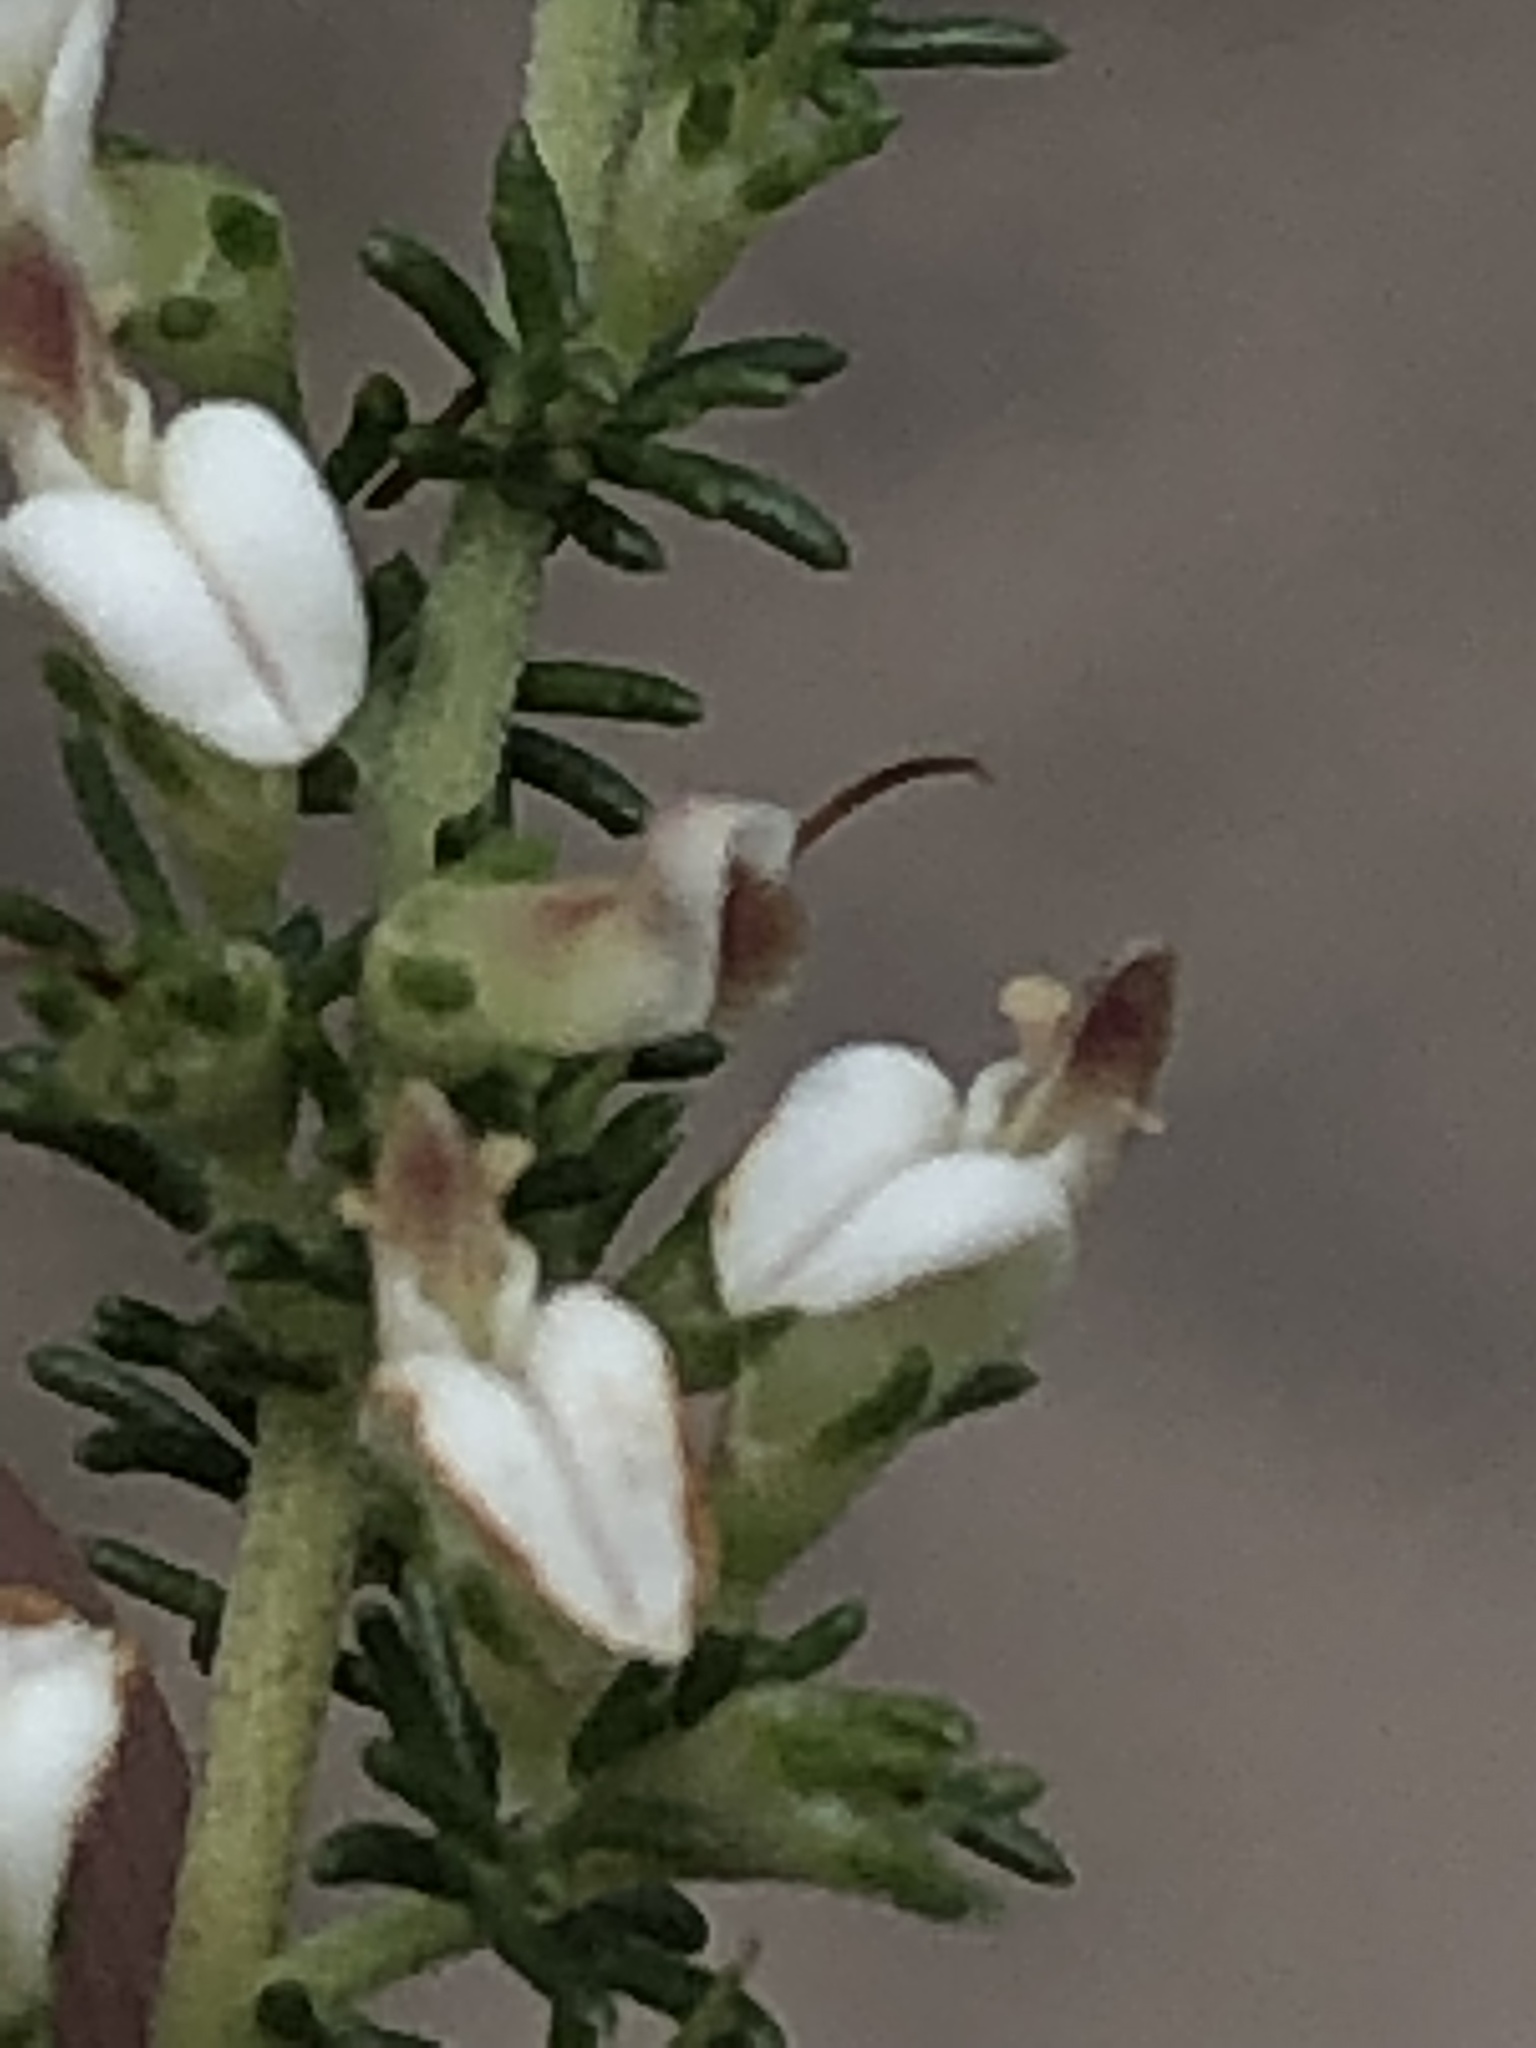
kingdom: Plantae
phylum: Tracheophyta
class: Magnoliopsida
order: Fabales
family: Fabaceae
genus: Aspalathus
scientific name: Aspalathus hispida
